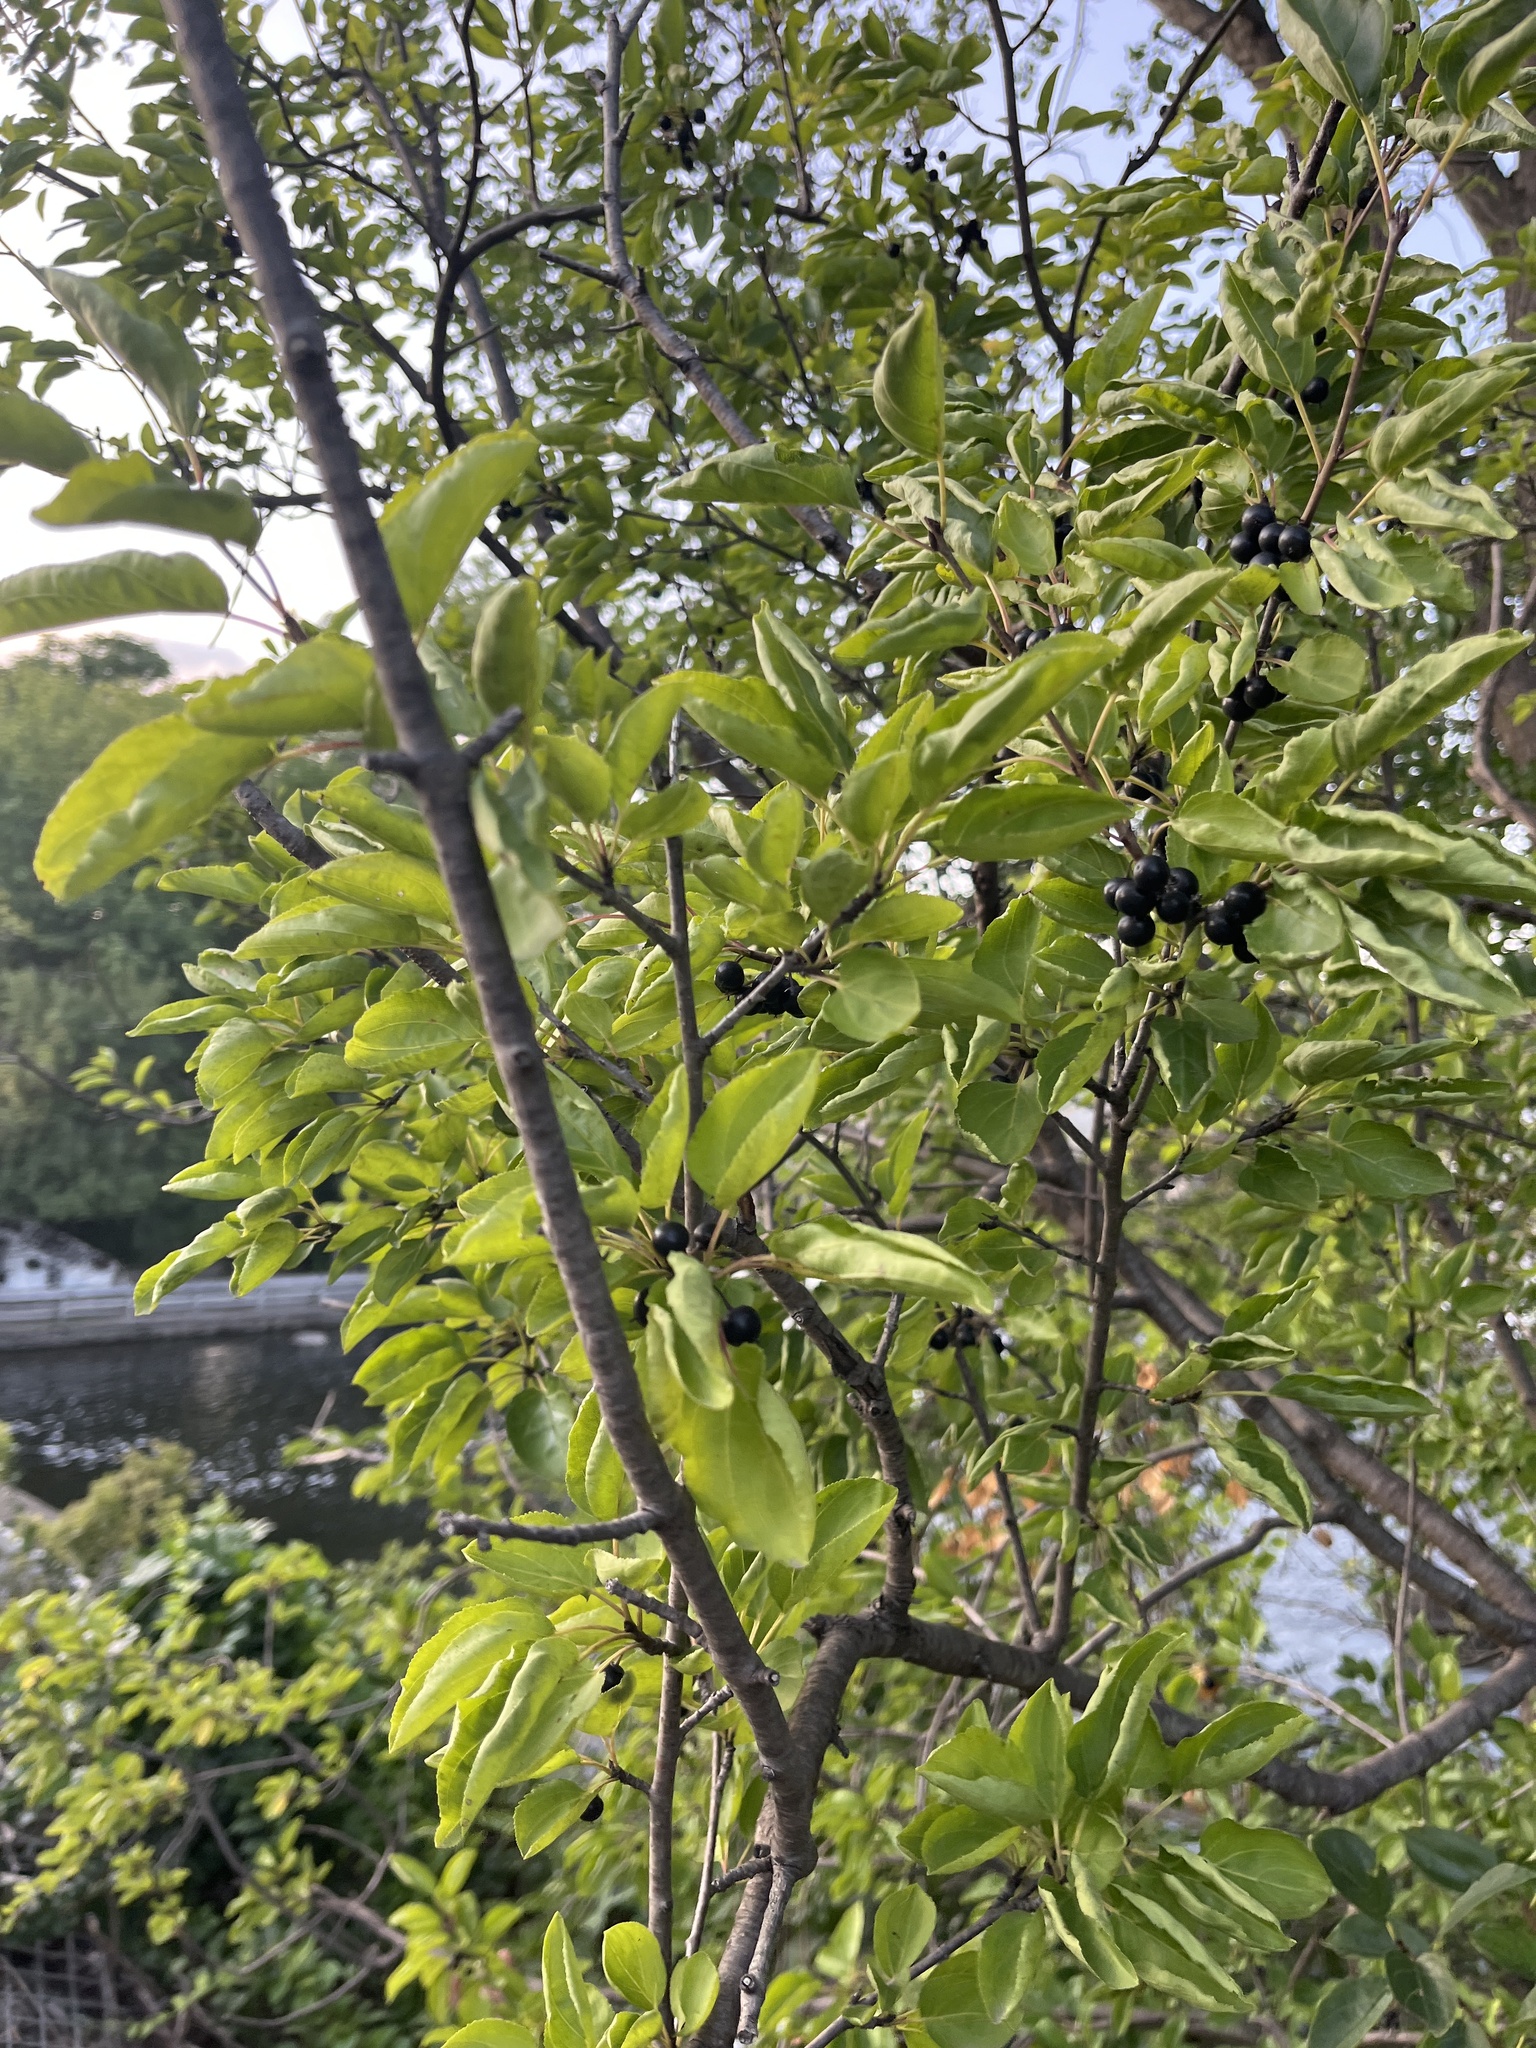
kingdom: Plantae
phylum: Tracheophyta
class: Magnoliopsida
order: Rosales
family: Rhamnaceae
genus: Rhamnus
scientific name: Rhamnus cathartica
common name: Common buckthorn
